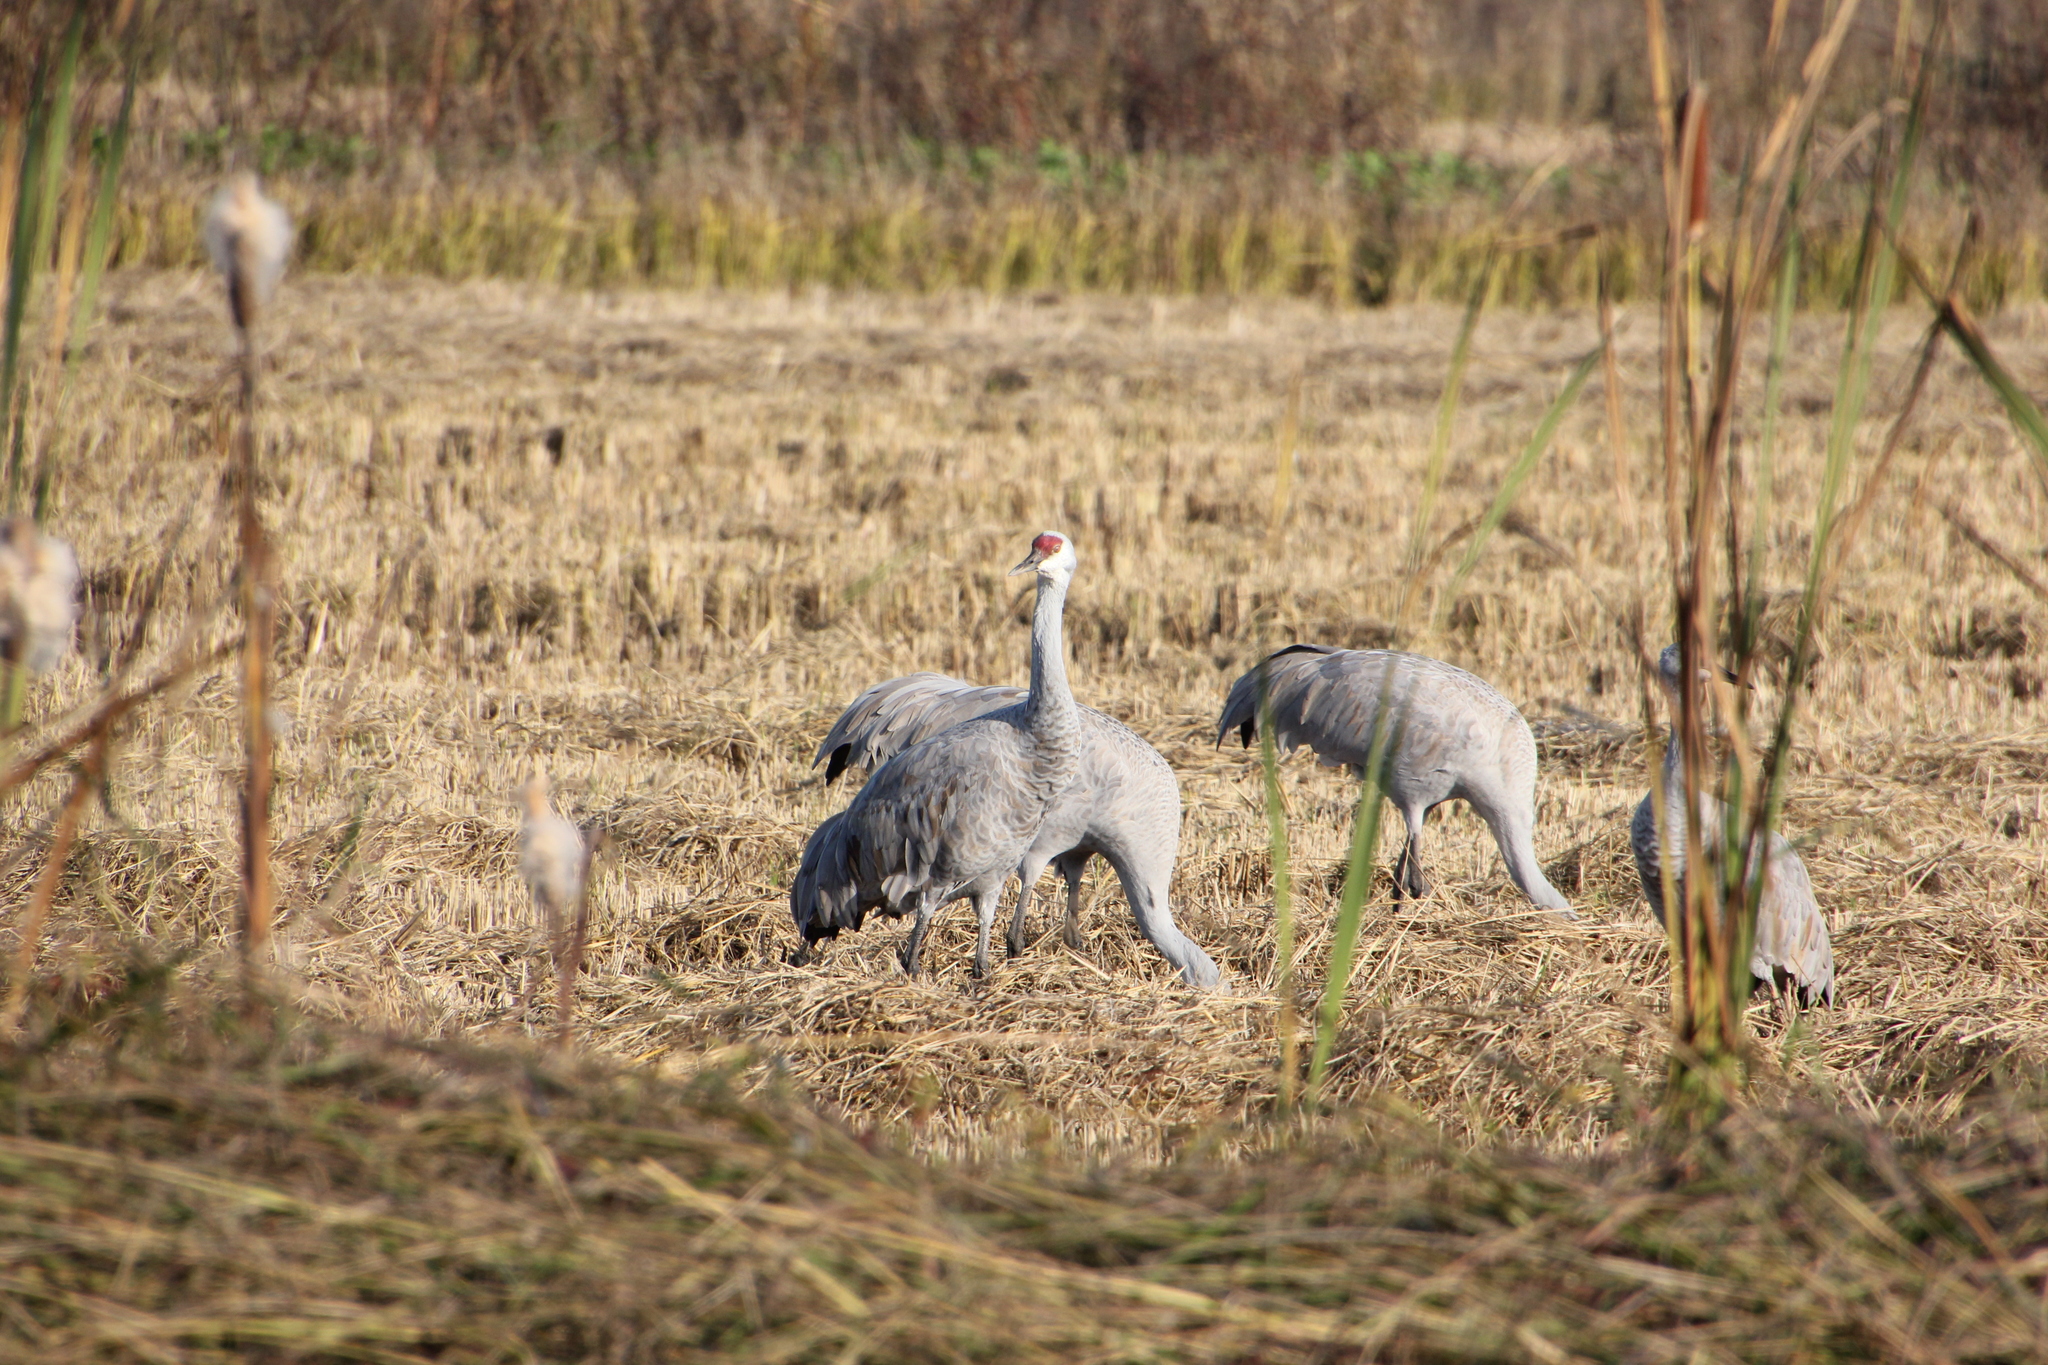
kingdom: Animalia
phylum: Chordata
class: Aves
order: Gruiformes
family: Gruidae
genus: Grus
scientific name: Grus canadensis
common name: Sandhill crane
